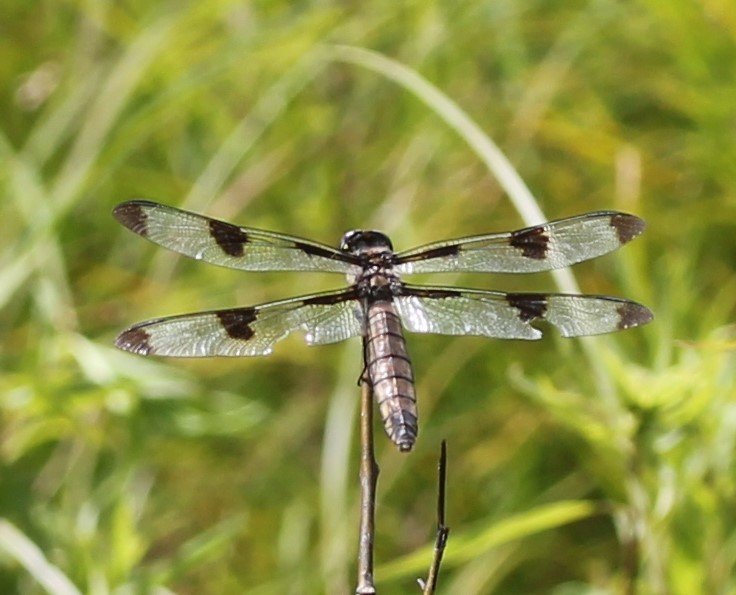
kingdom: Animalia
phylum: Arthropoda
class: Insecta
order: Odonata
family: Libellulidae
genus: Libellula
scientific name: Libellula pulchella
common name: Twelve-spotted skimmer
